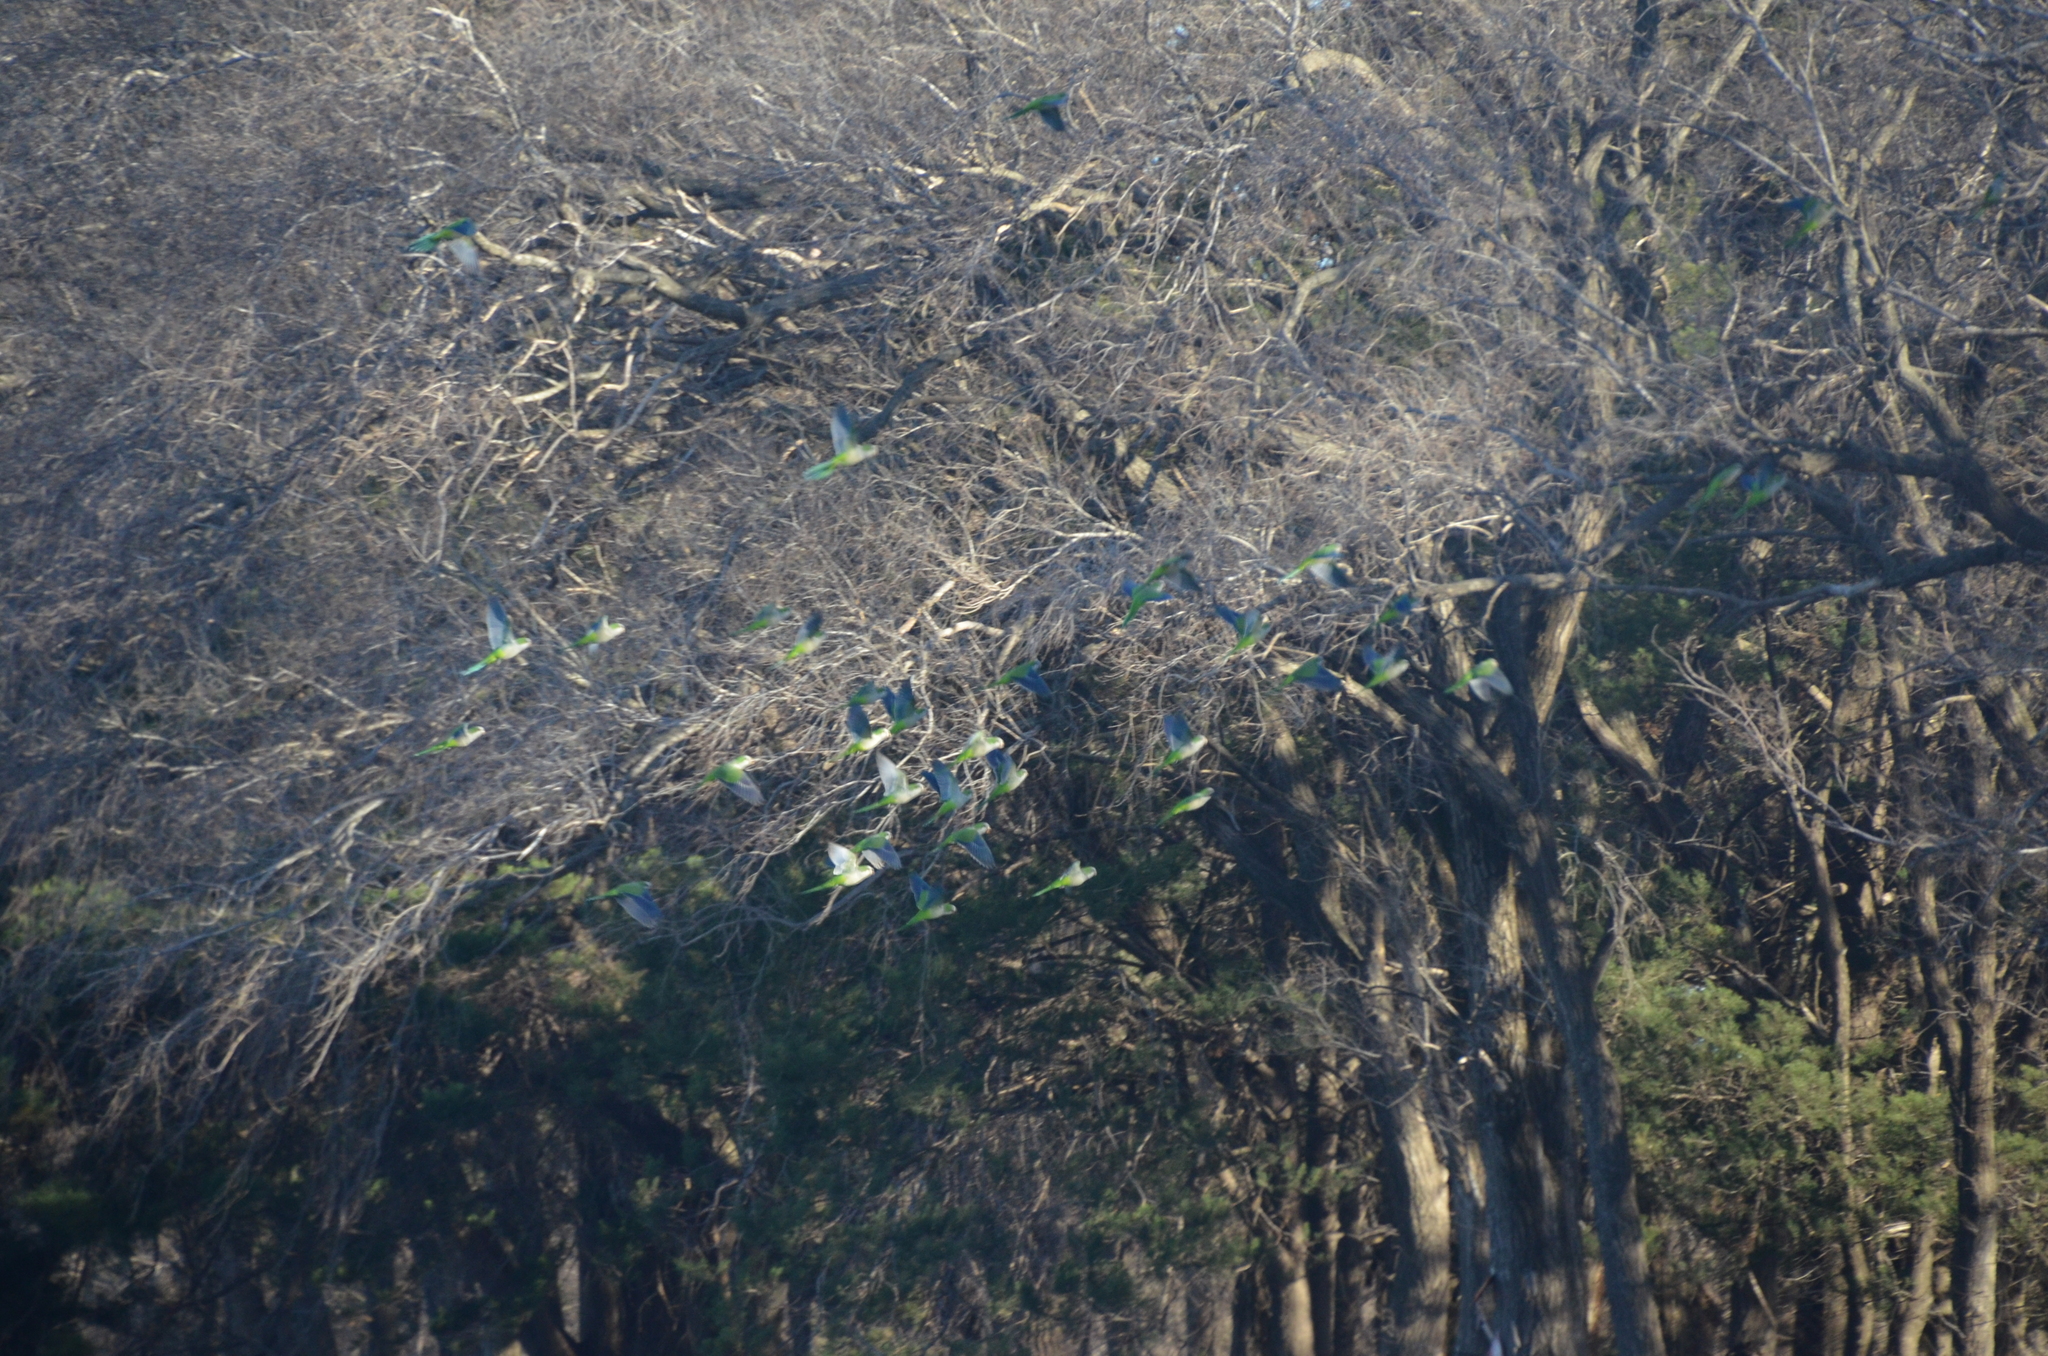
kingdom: Animalia
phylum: Chordata
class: Aves
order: Psittaciformes
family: Psittacidae
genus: Myiopsitta
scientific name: Myiopsitta monachus
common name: Monk parakeet
